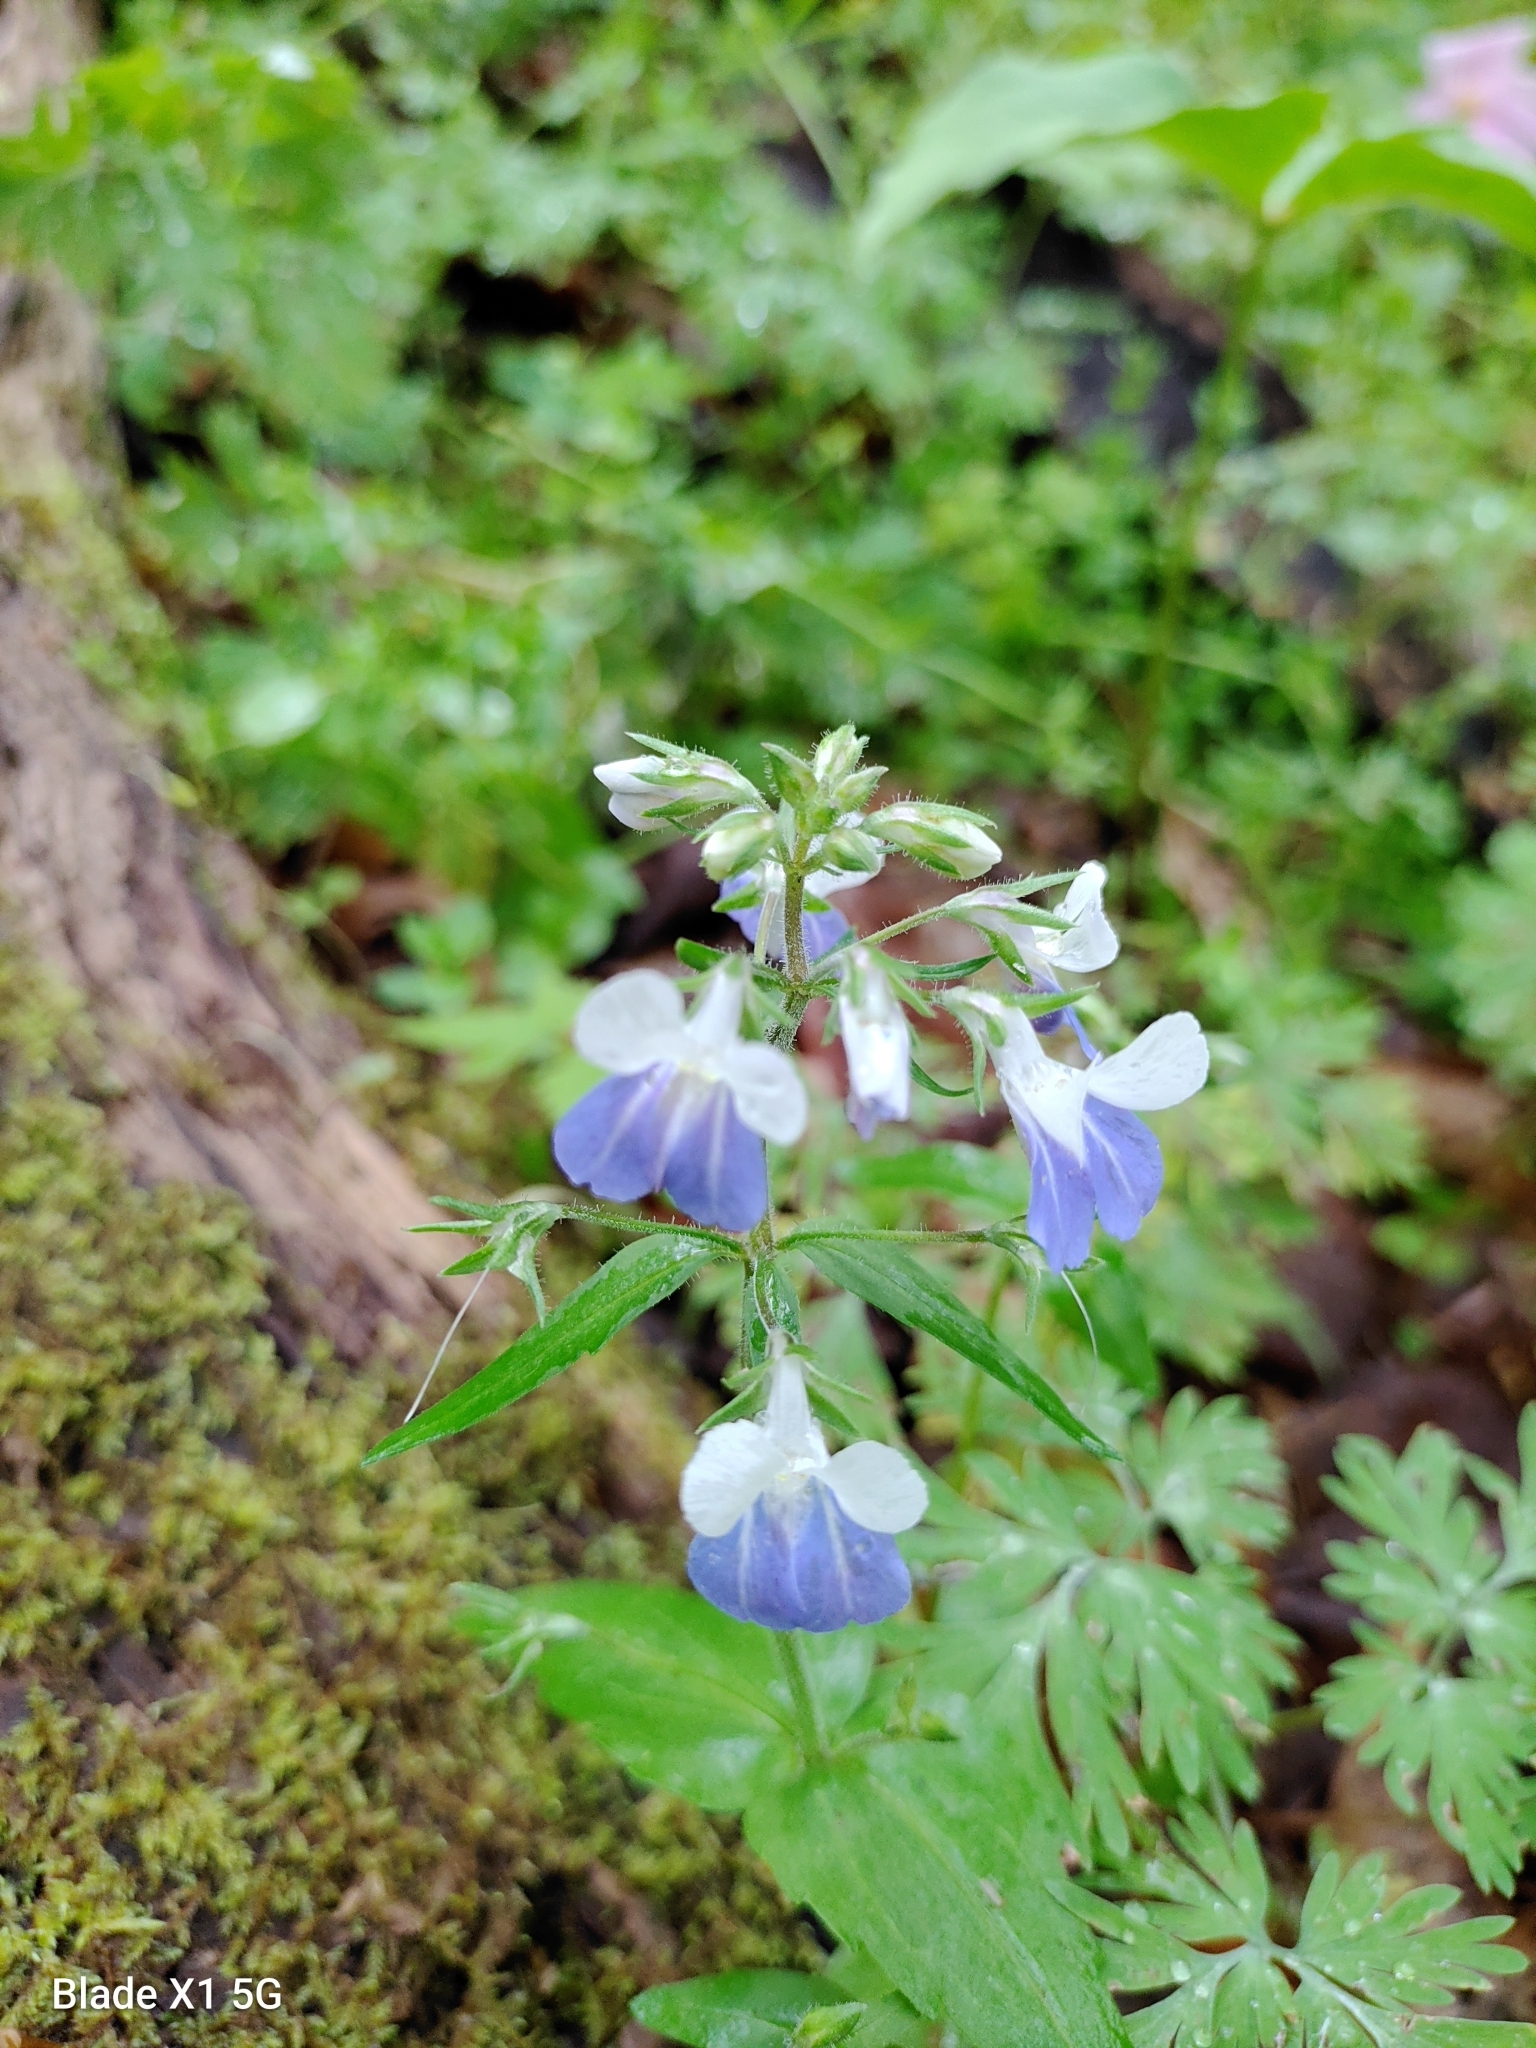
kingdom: Plantae
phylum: Tracheophyta
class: Magnoliopsida
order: Lamiales
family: Plantaginaceae
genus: Collinsia
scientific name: Collinsia verna
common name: Broad-leaved collinsia
